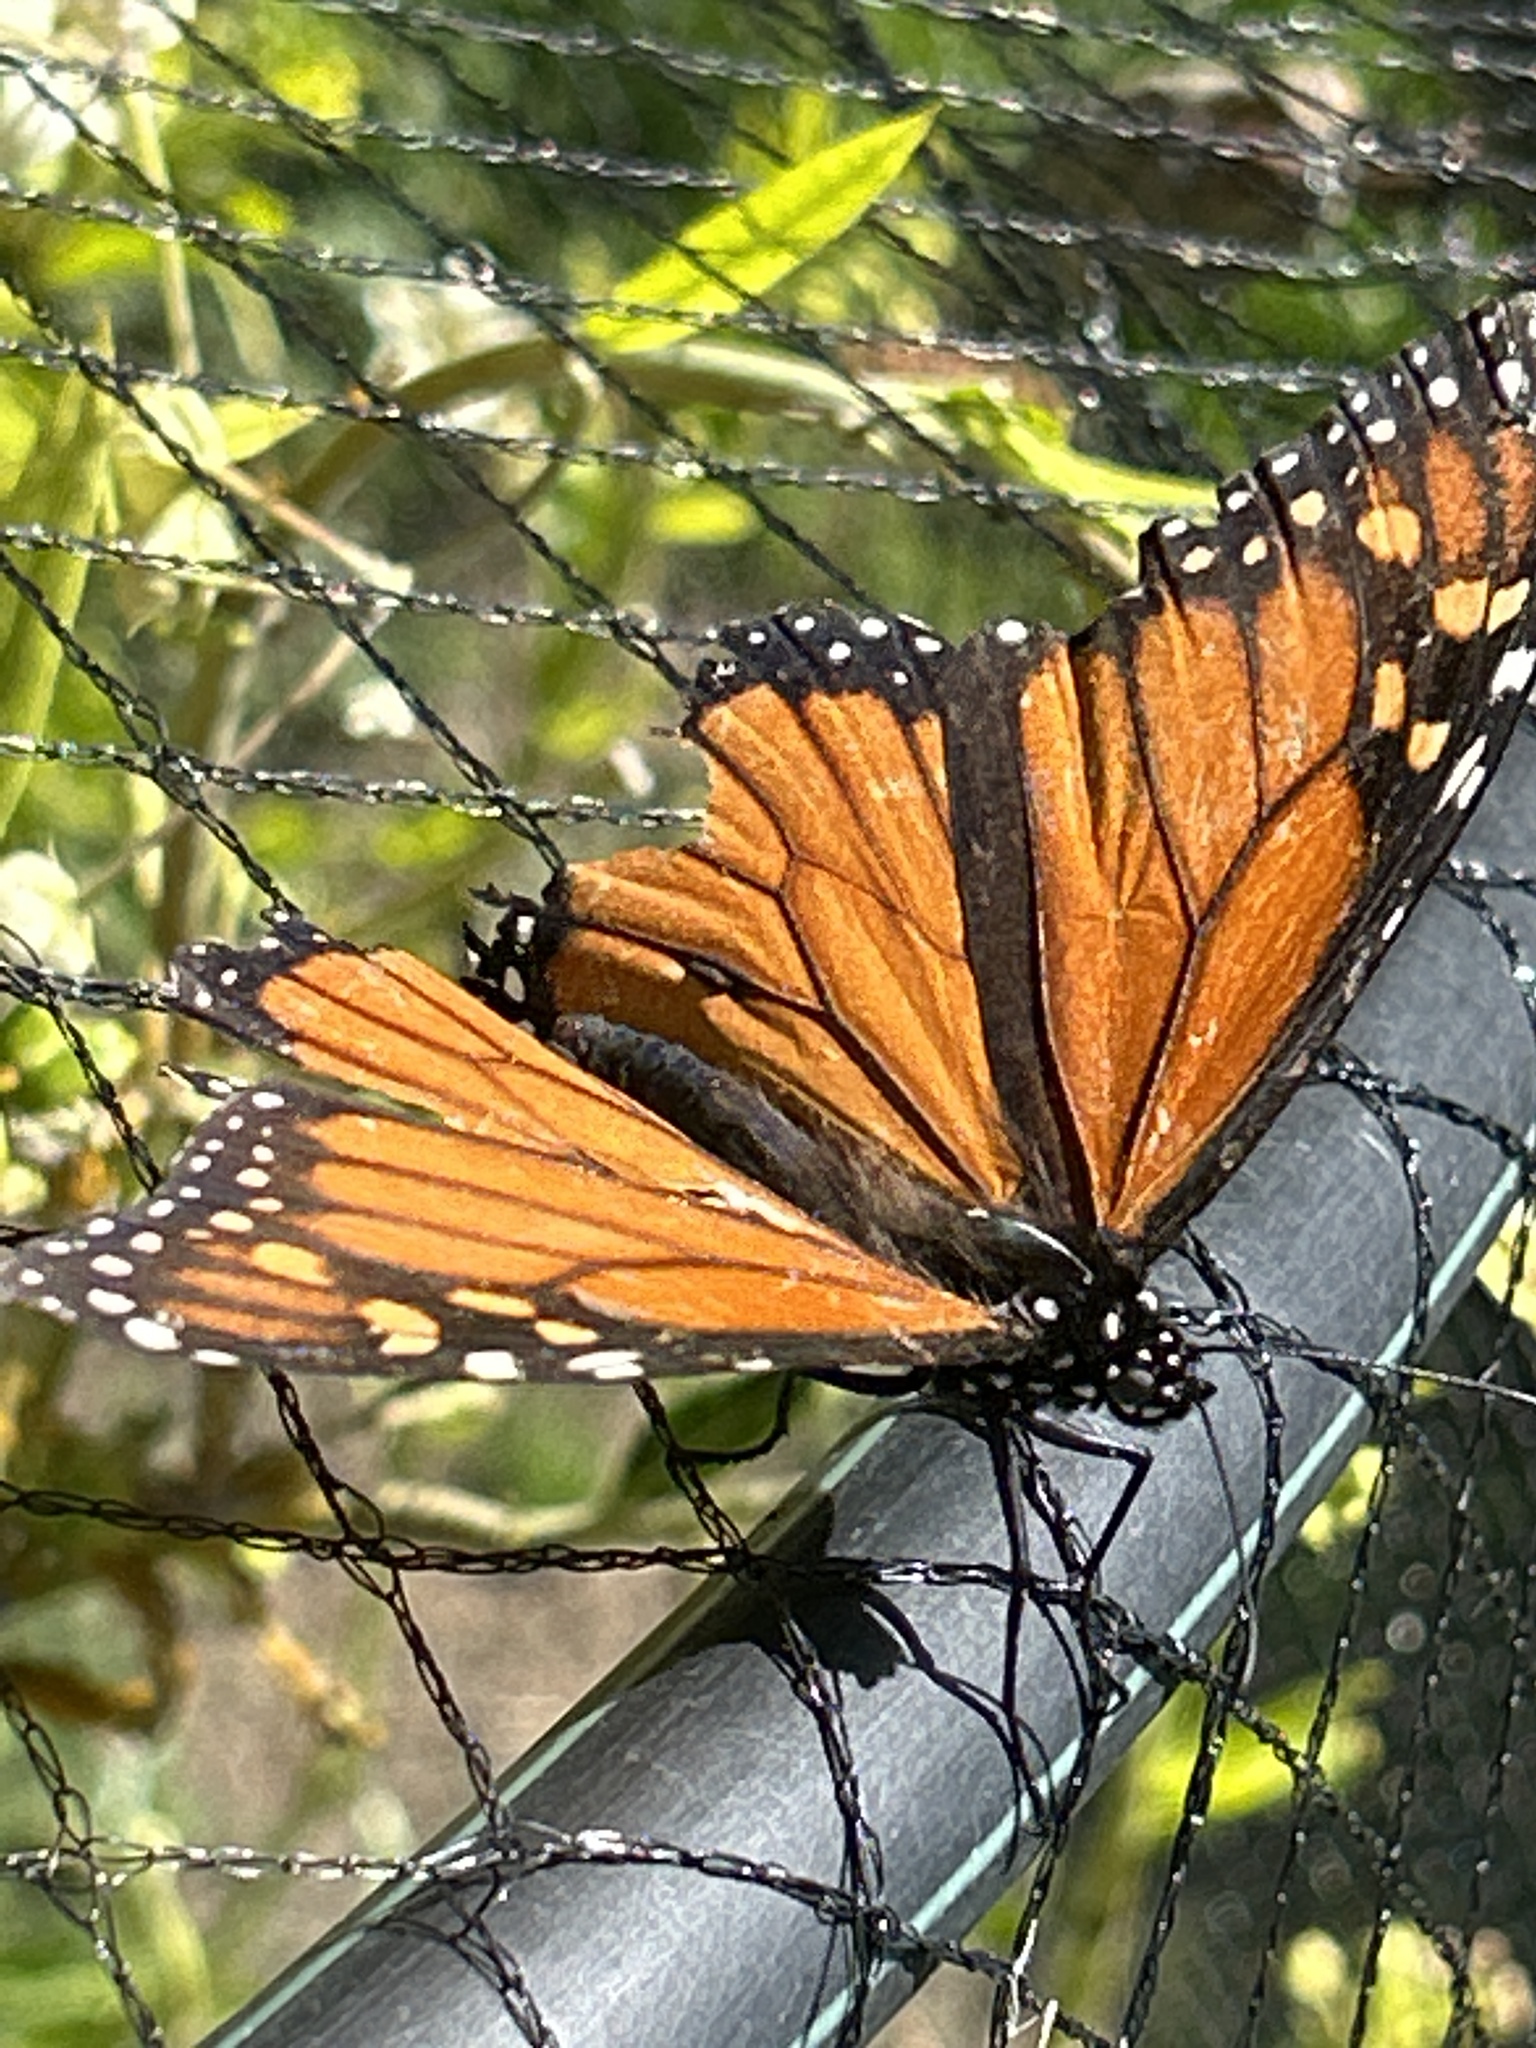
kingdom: Animalia
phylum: Arthropoda
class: Insecta
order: Lepidoptera
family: Nymphalidae
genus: Danaus
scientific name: Danaus plexippus
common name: Monarch
